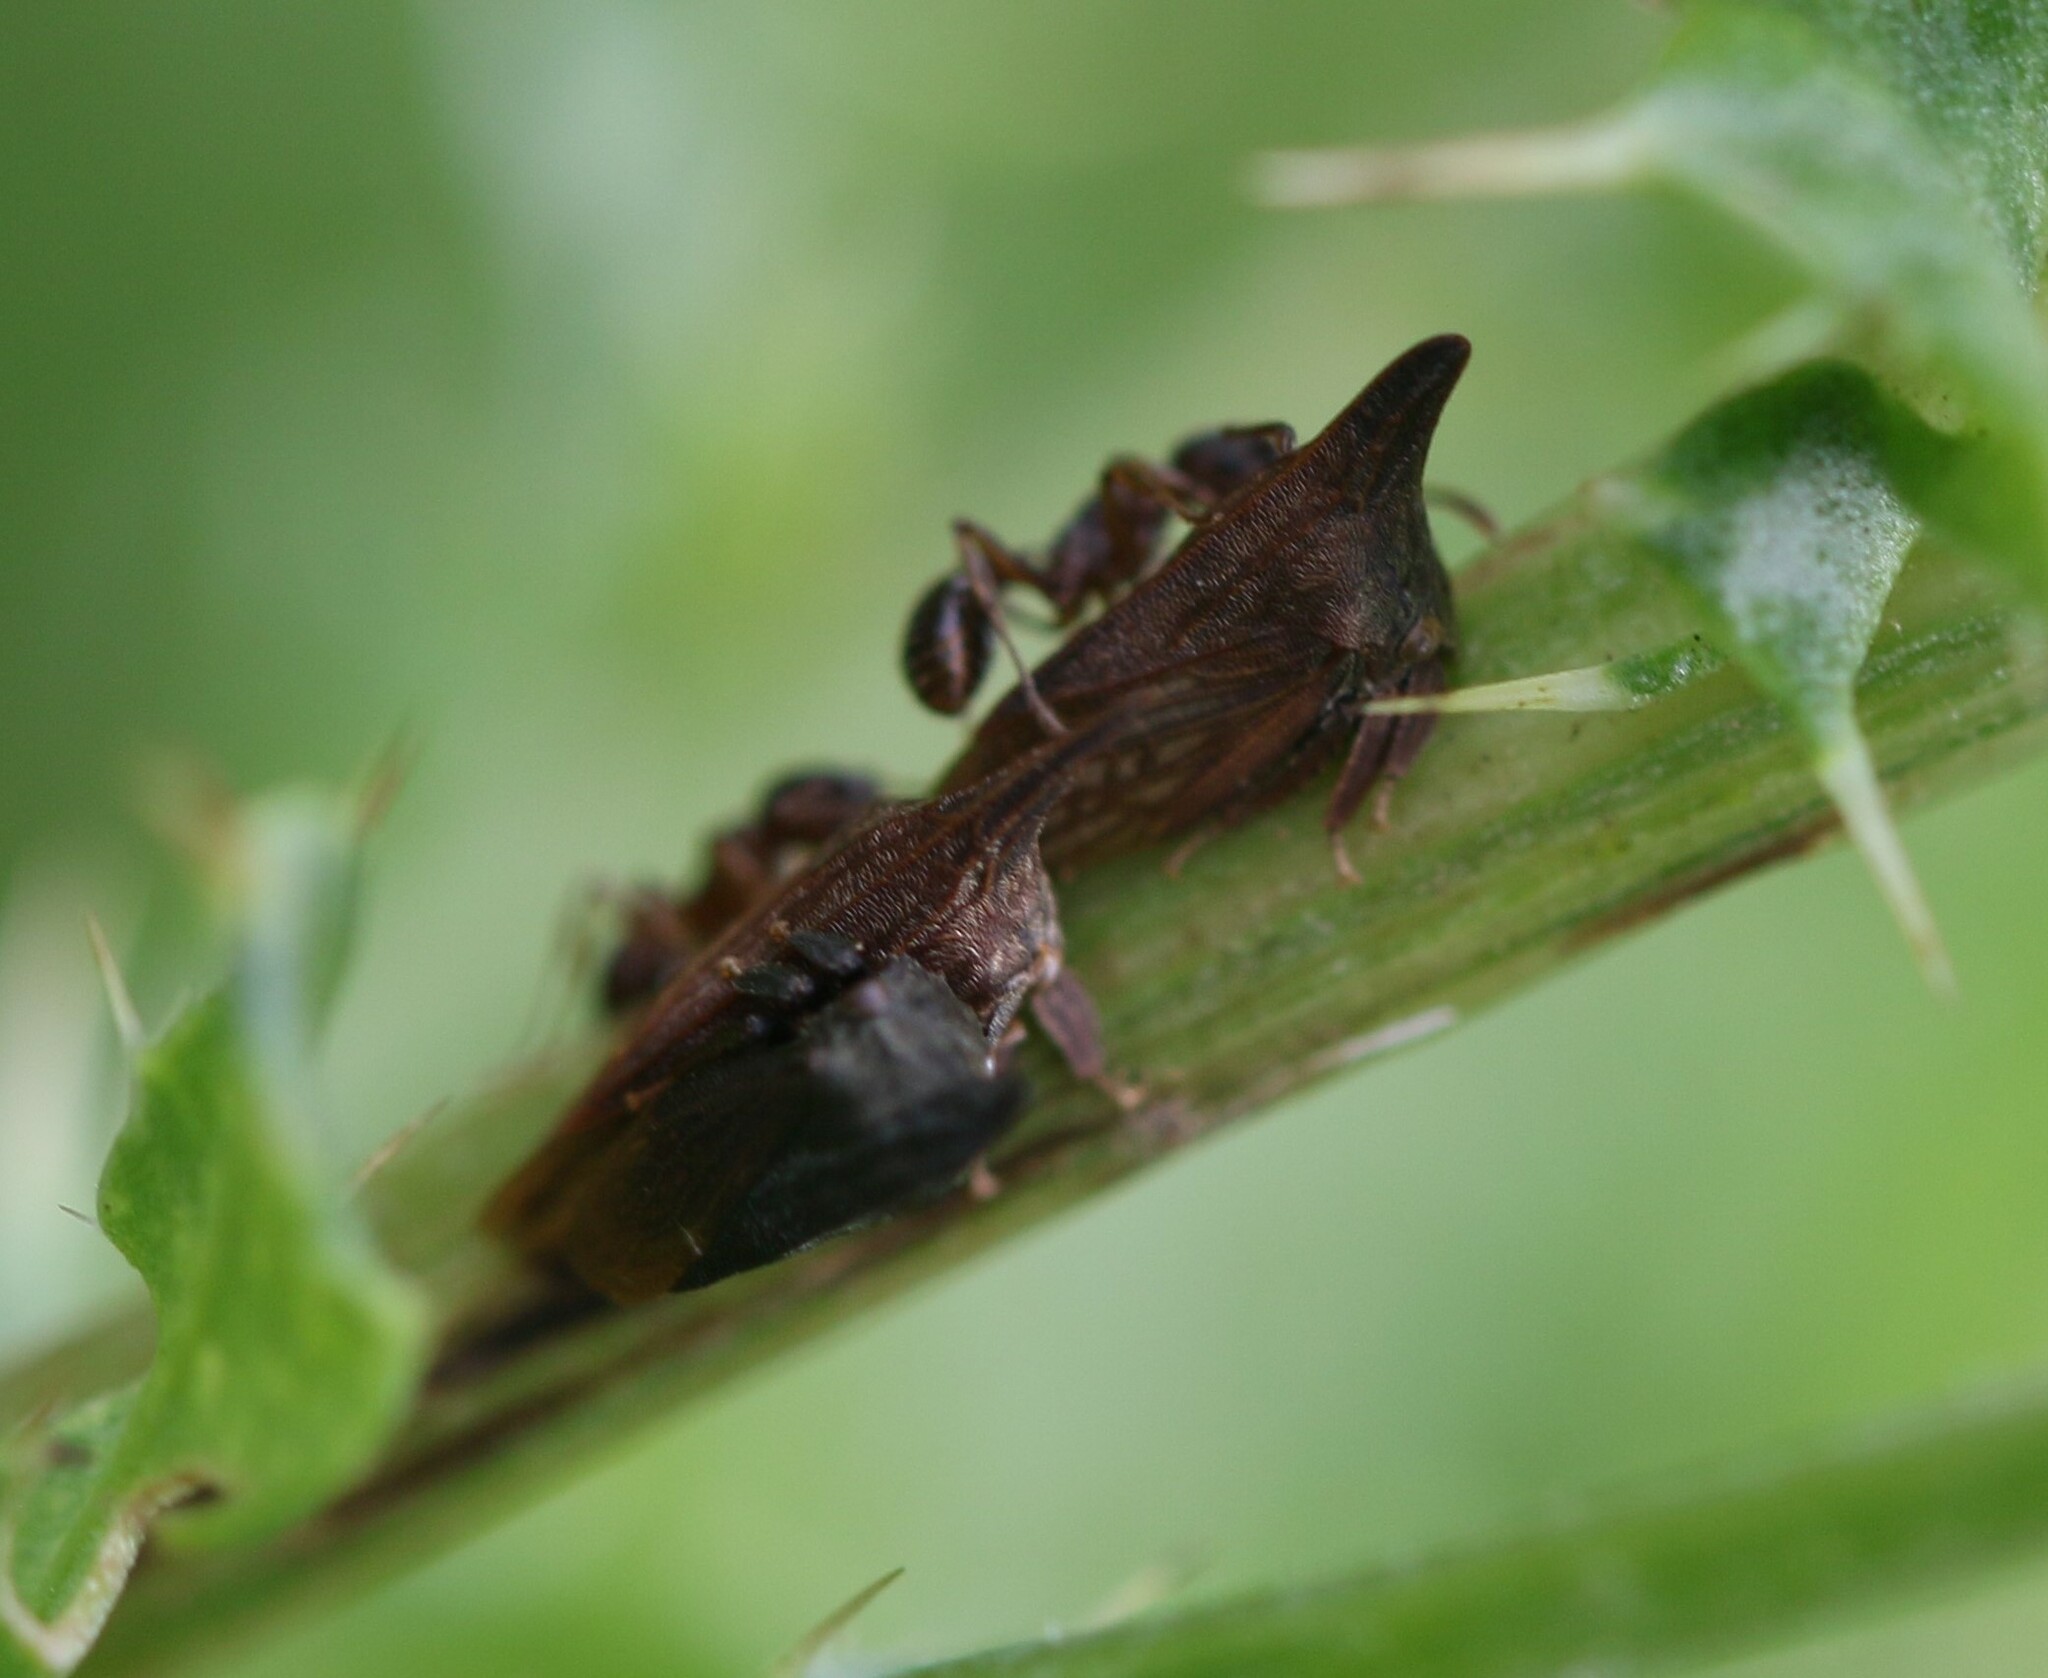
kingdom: Animalia
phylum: Arthropoda
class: Insecta
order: Hemiptera
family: Membracidae
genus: Enchenopa
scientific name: Enchenopa latipes
